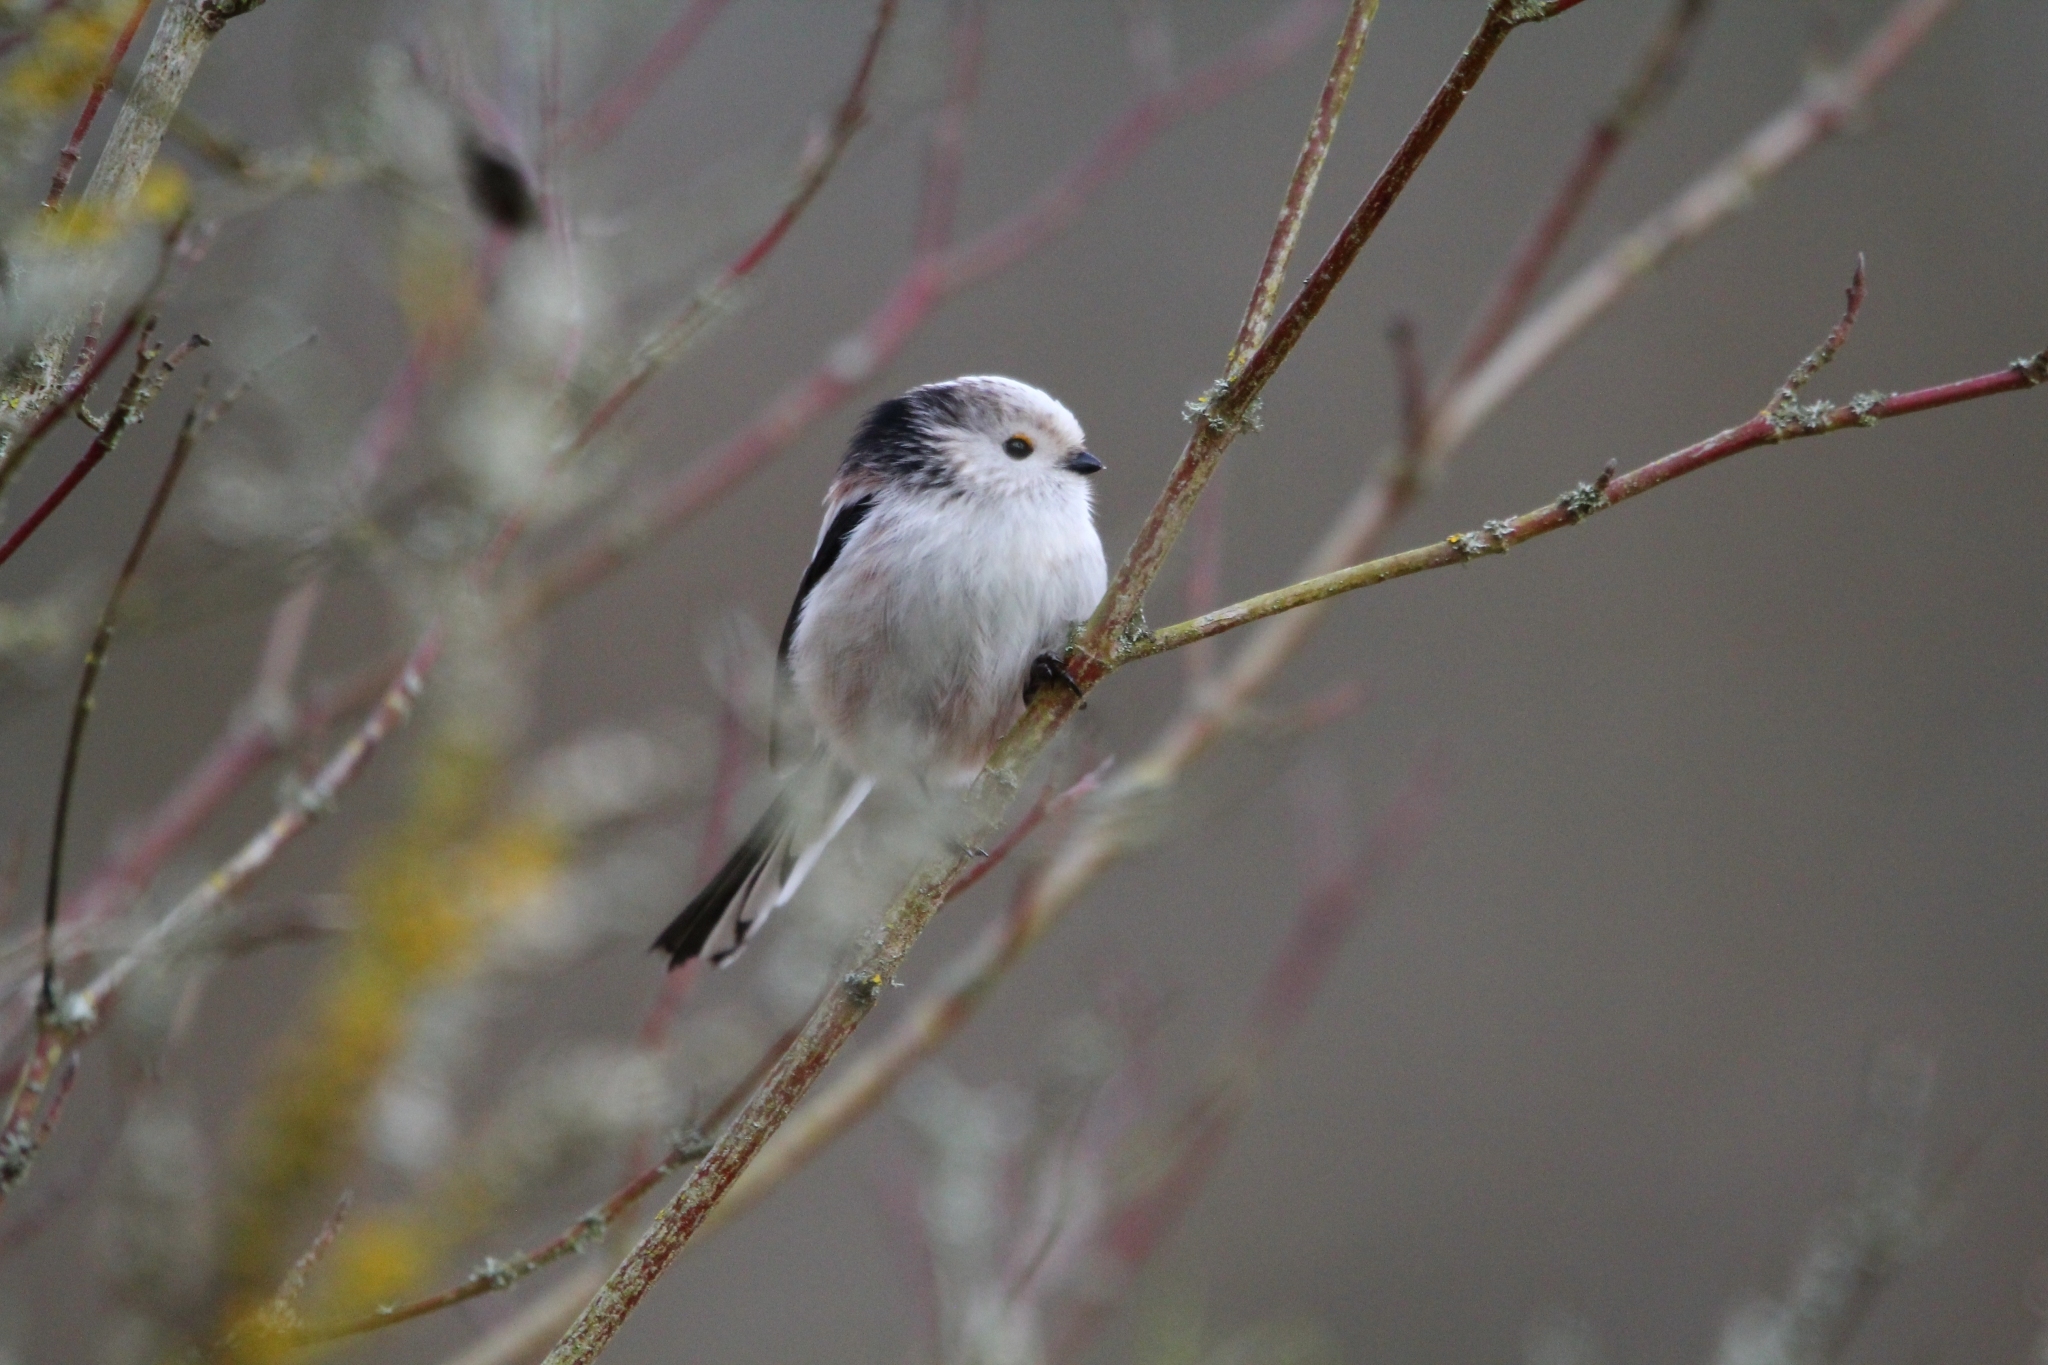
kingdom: Animalia
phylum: Chordata
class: Aves
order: Passeriformes
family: Aegithalidae
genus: Aegithalos
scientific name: Aegithalos caudatus
